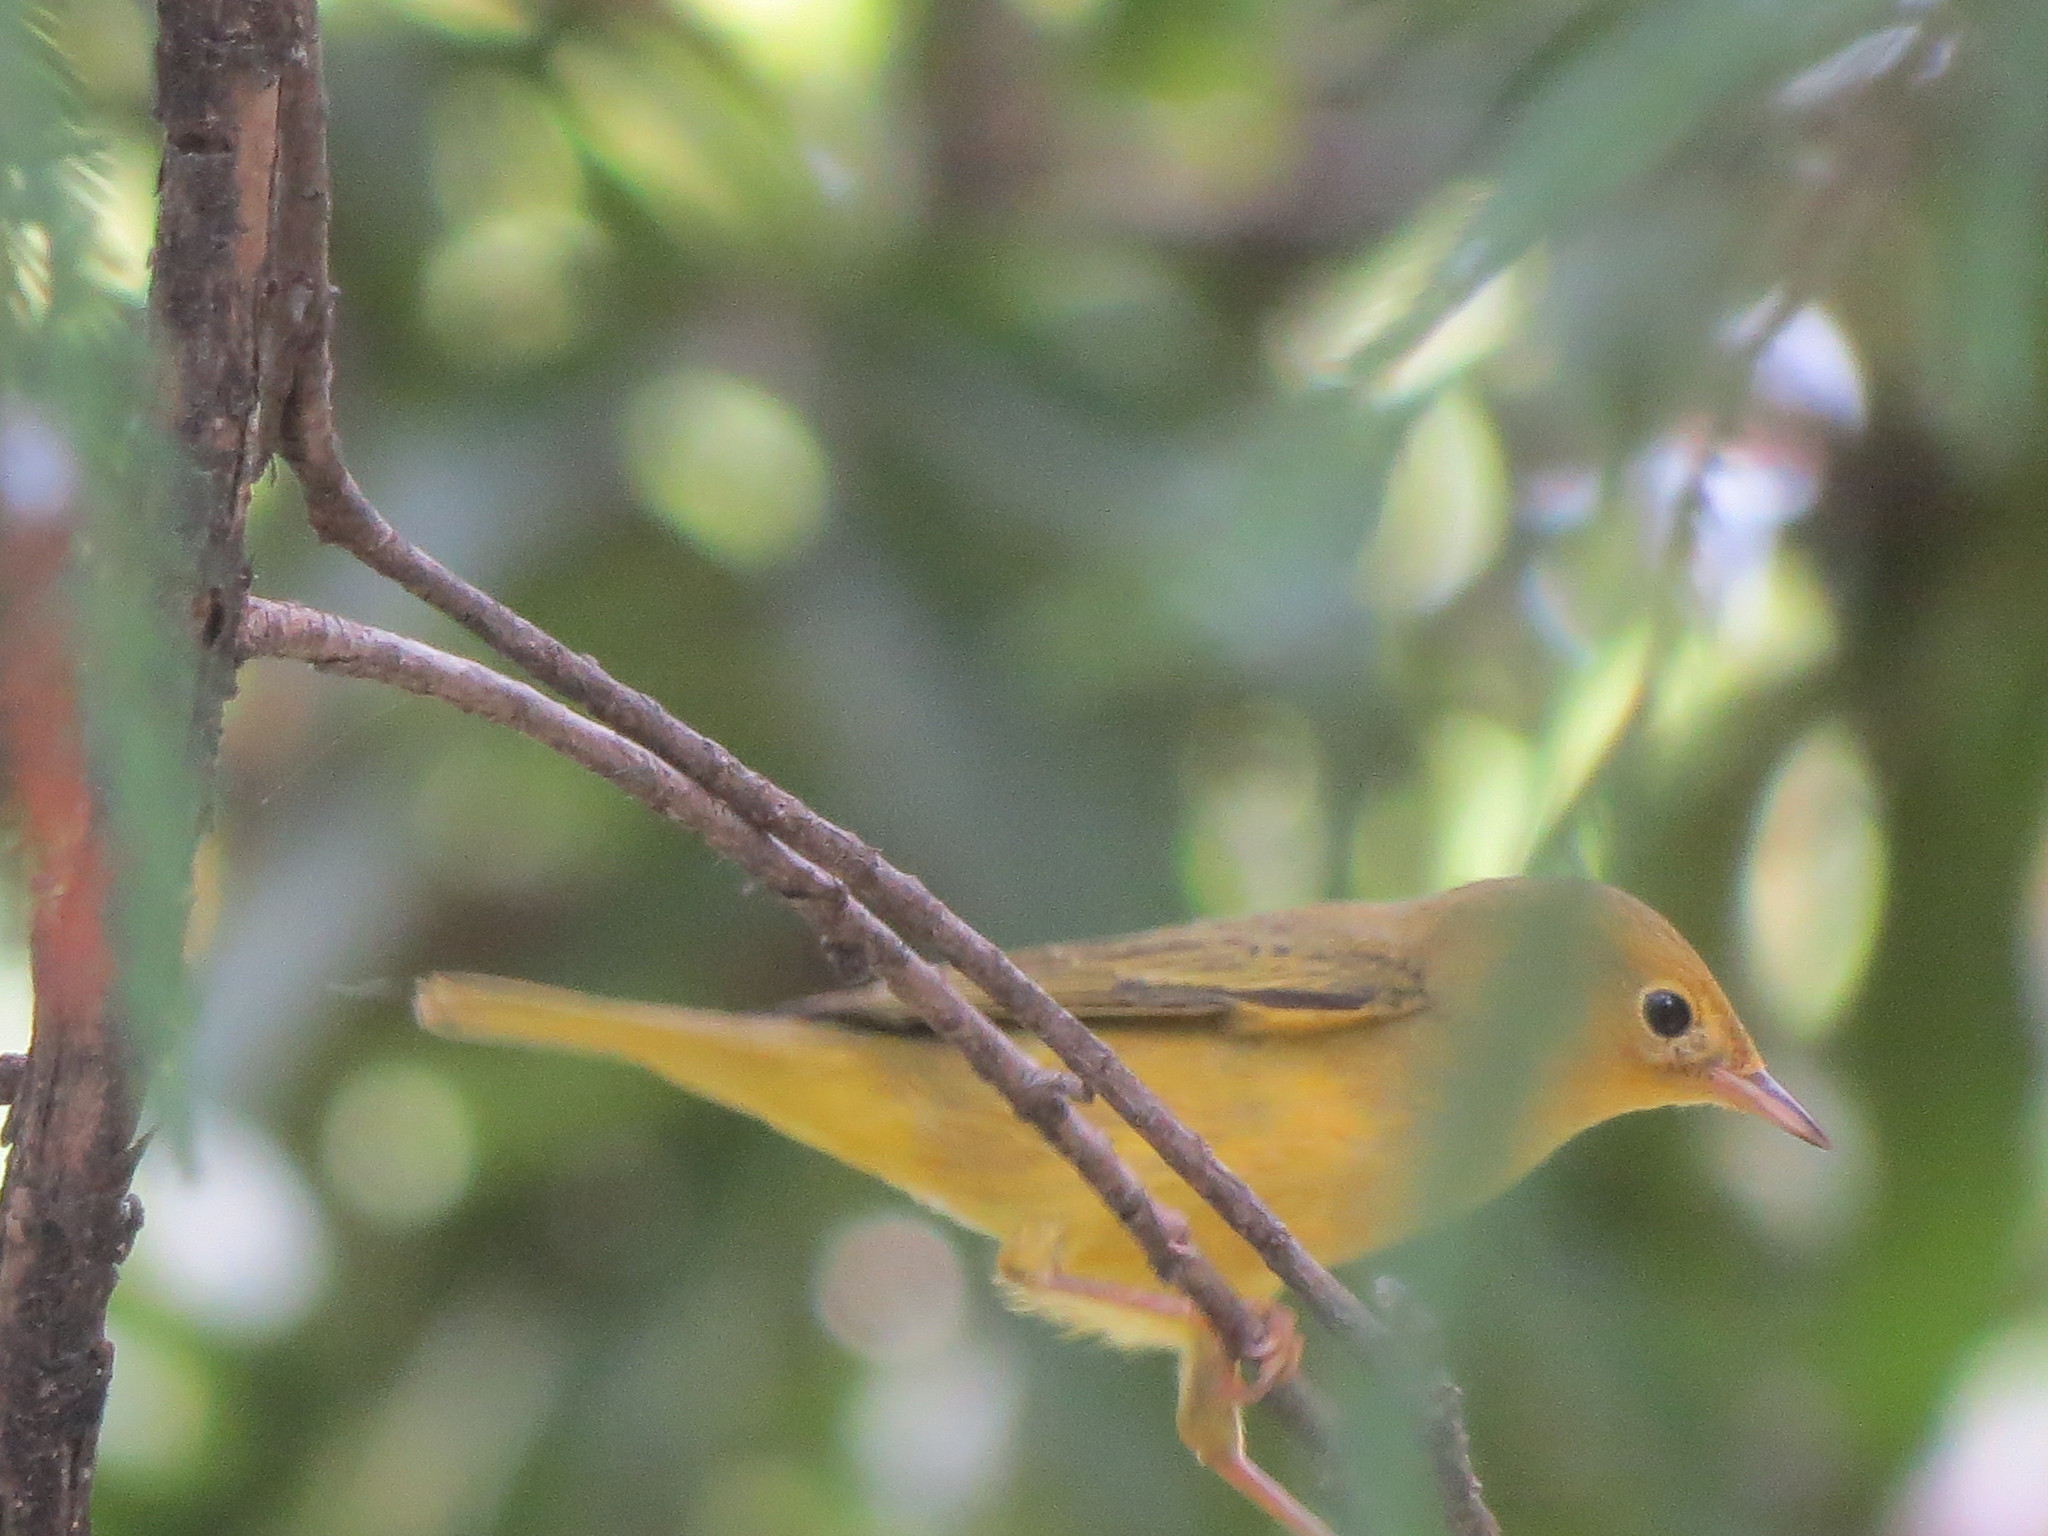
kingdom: Animalia
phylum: Chordata
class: Aves
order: Passeriformes
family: Parulidae
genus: Setophaga
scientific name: Setophaga petechia
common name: Yellow warbler
